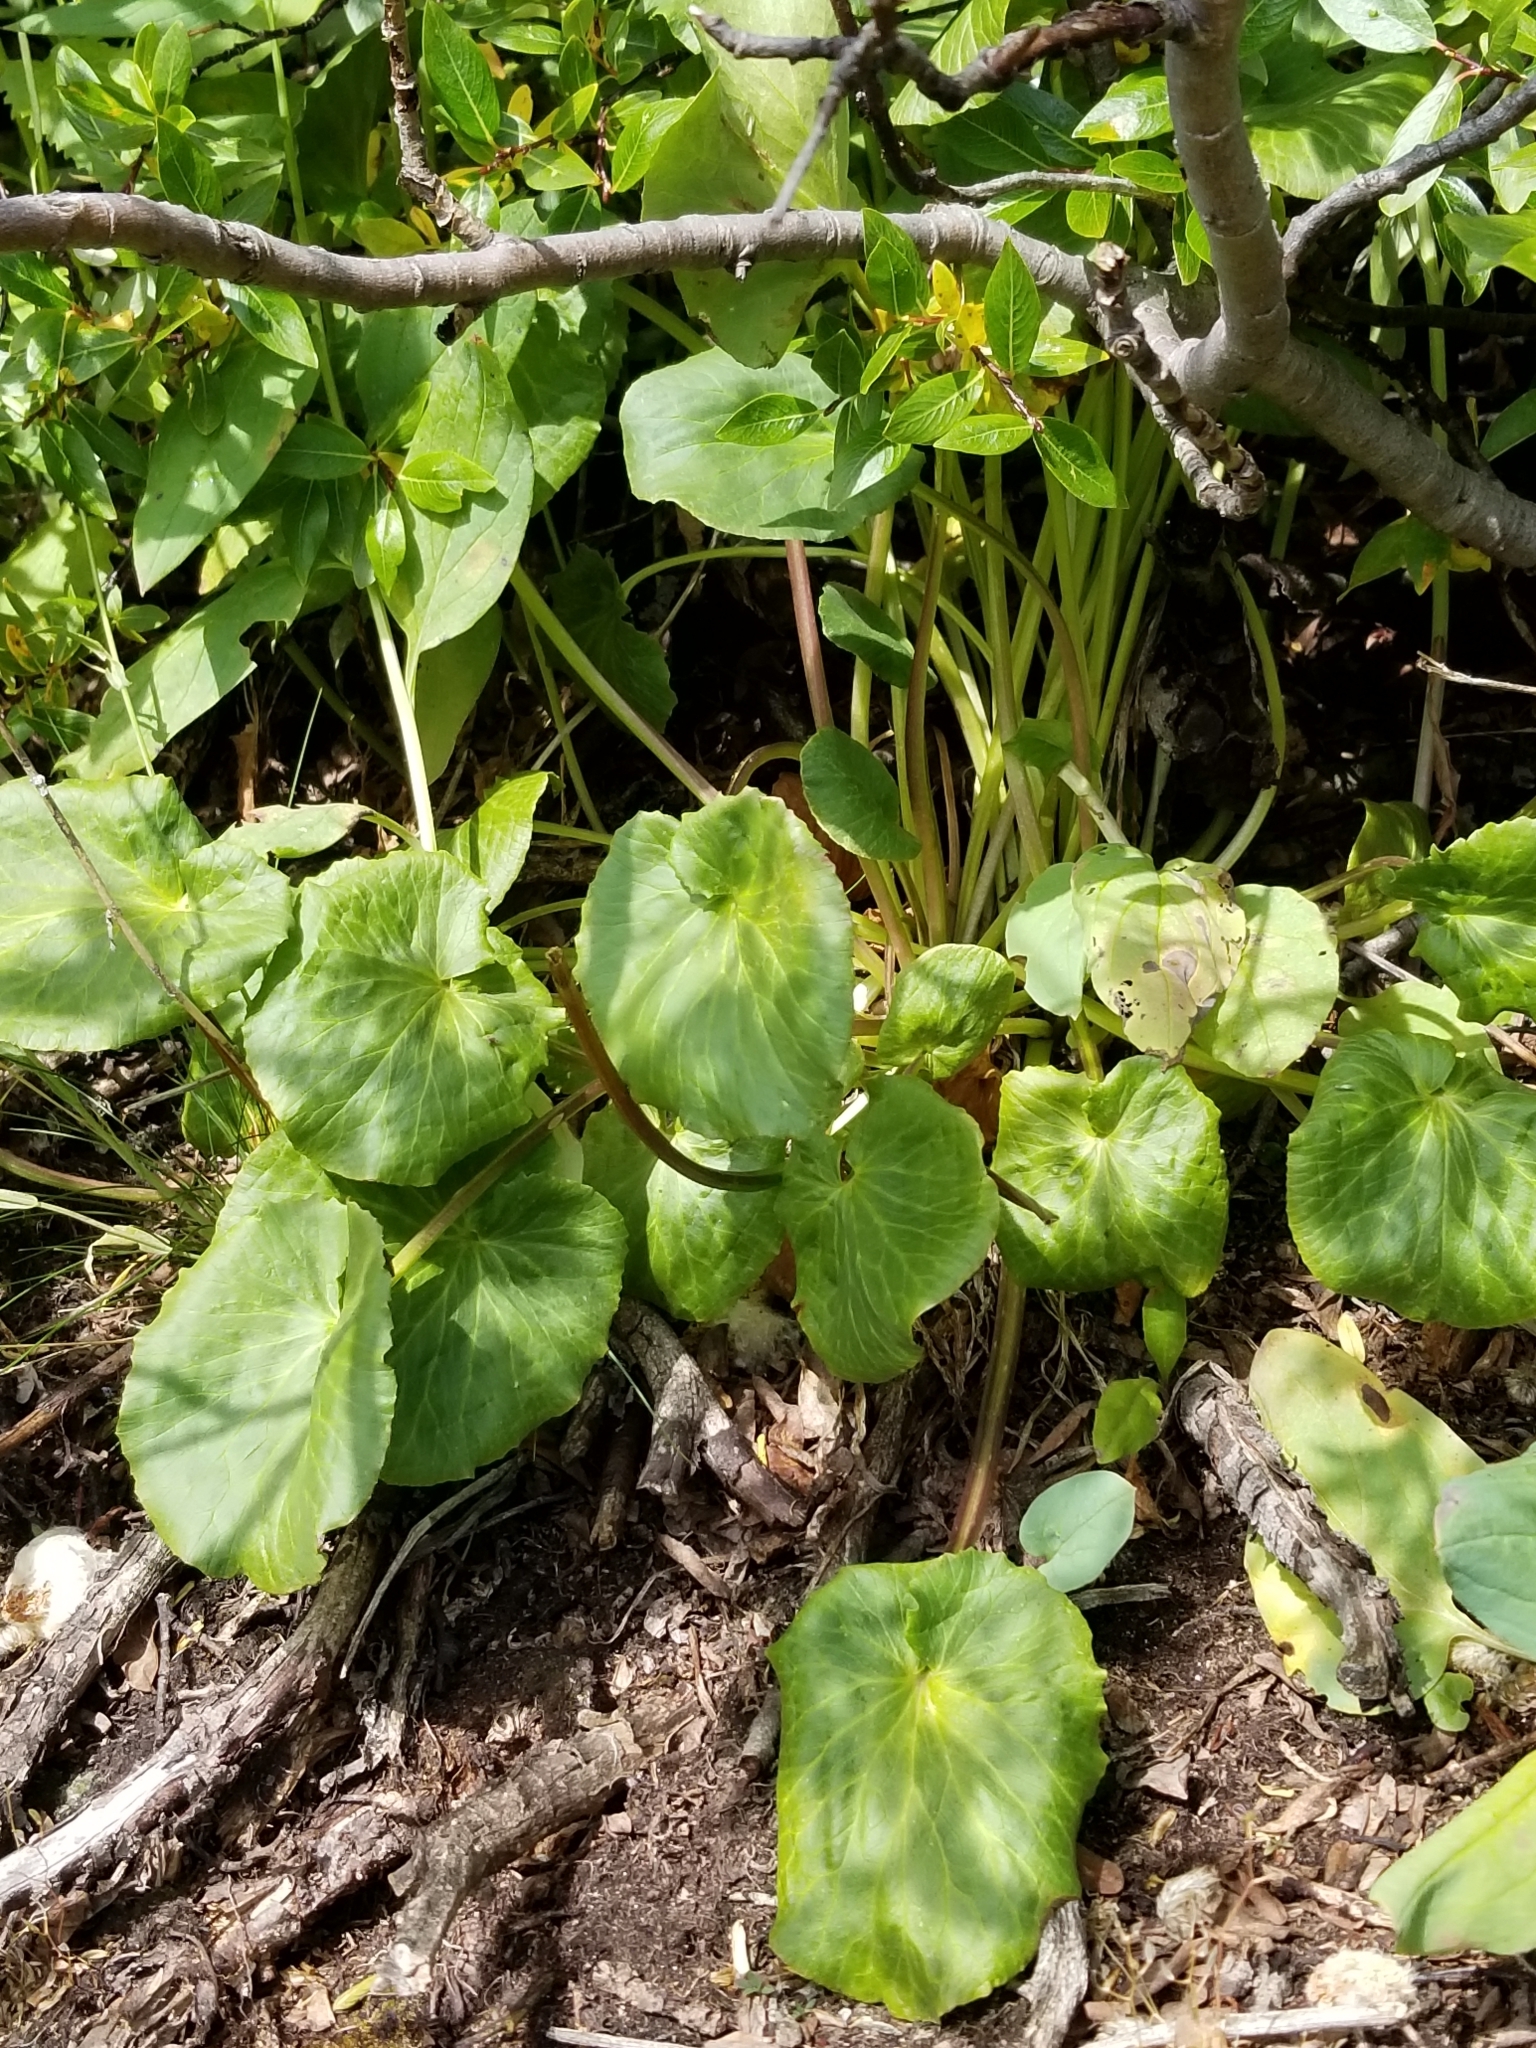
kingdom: Plantae
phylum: Tracheophyta
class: Magnoliopsida
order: Ranunculales
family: Ranunculaceae
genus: Caltha
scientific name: Caltha leptosepala
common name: Elkslip
